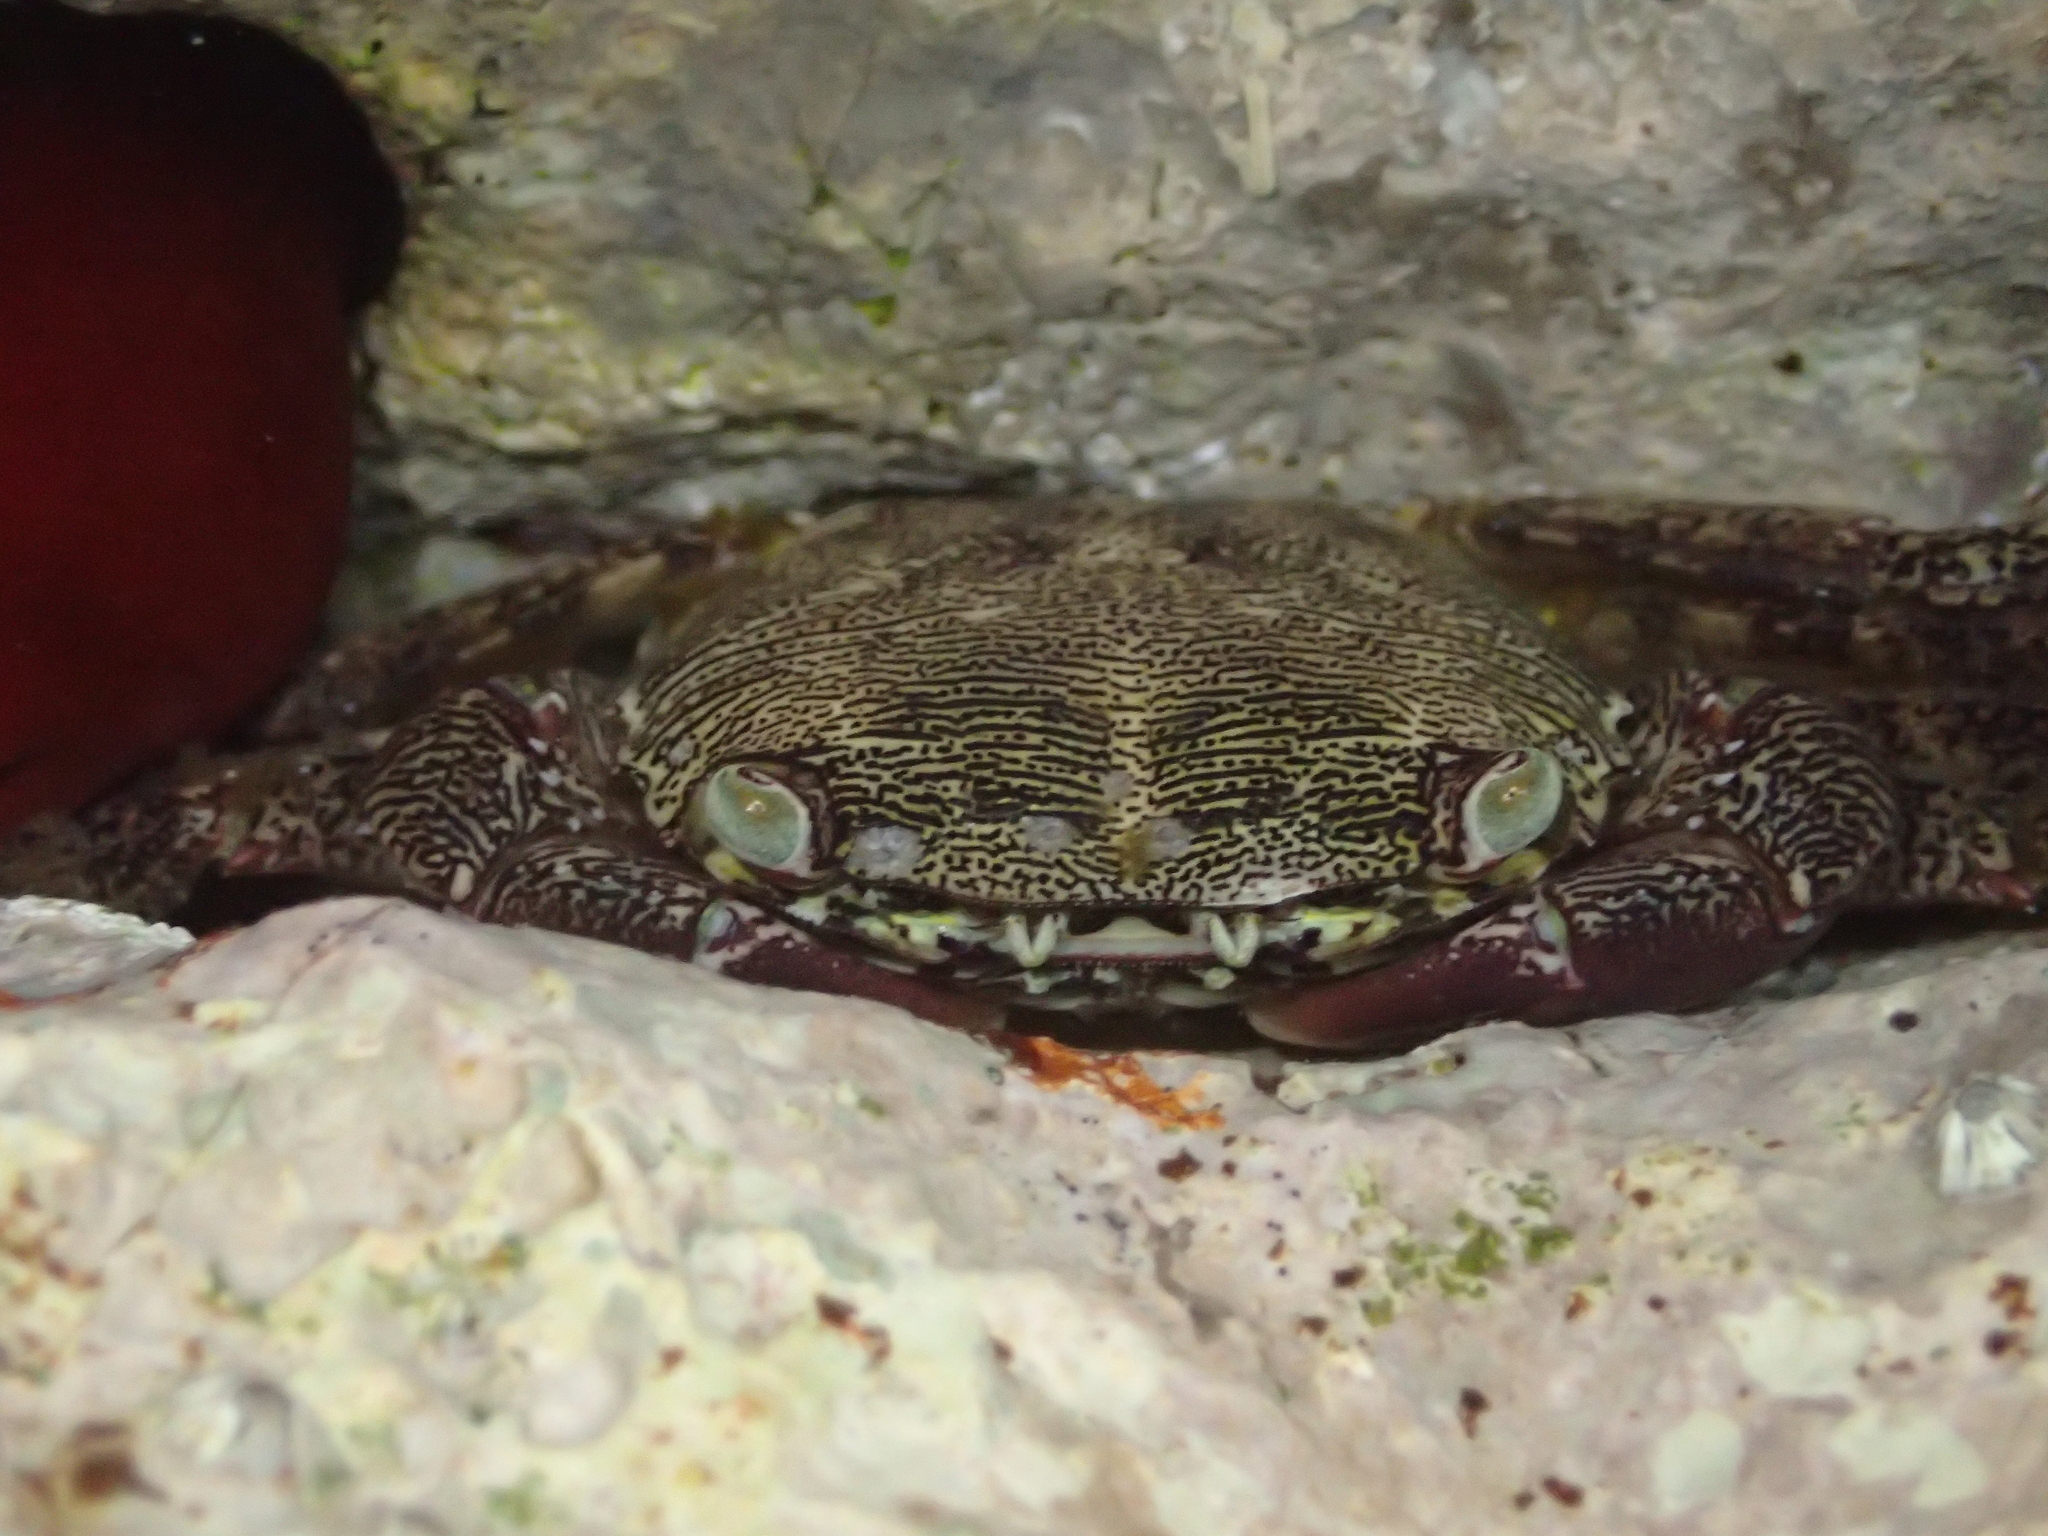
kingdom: Animalia
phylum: Arthropoda
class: Malacostraca
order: Decapoda
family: Grapsidae
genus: Pachygrapsus
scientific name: Pachygrapsus marmoratus
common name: Marbled rock crab
